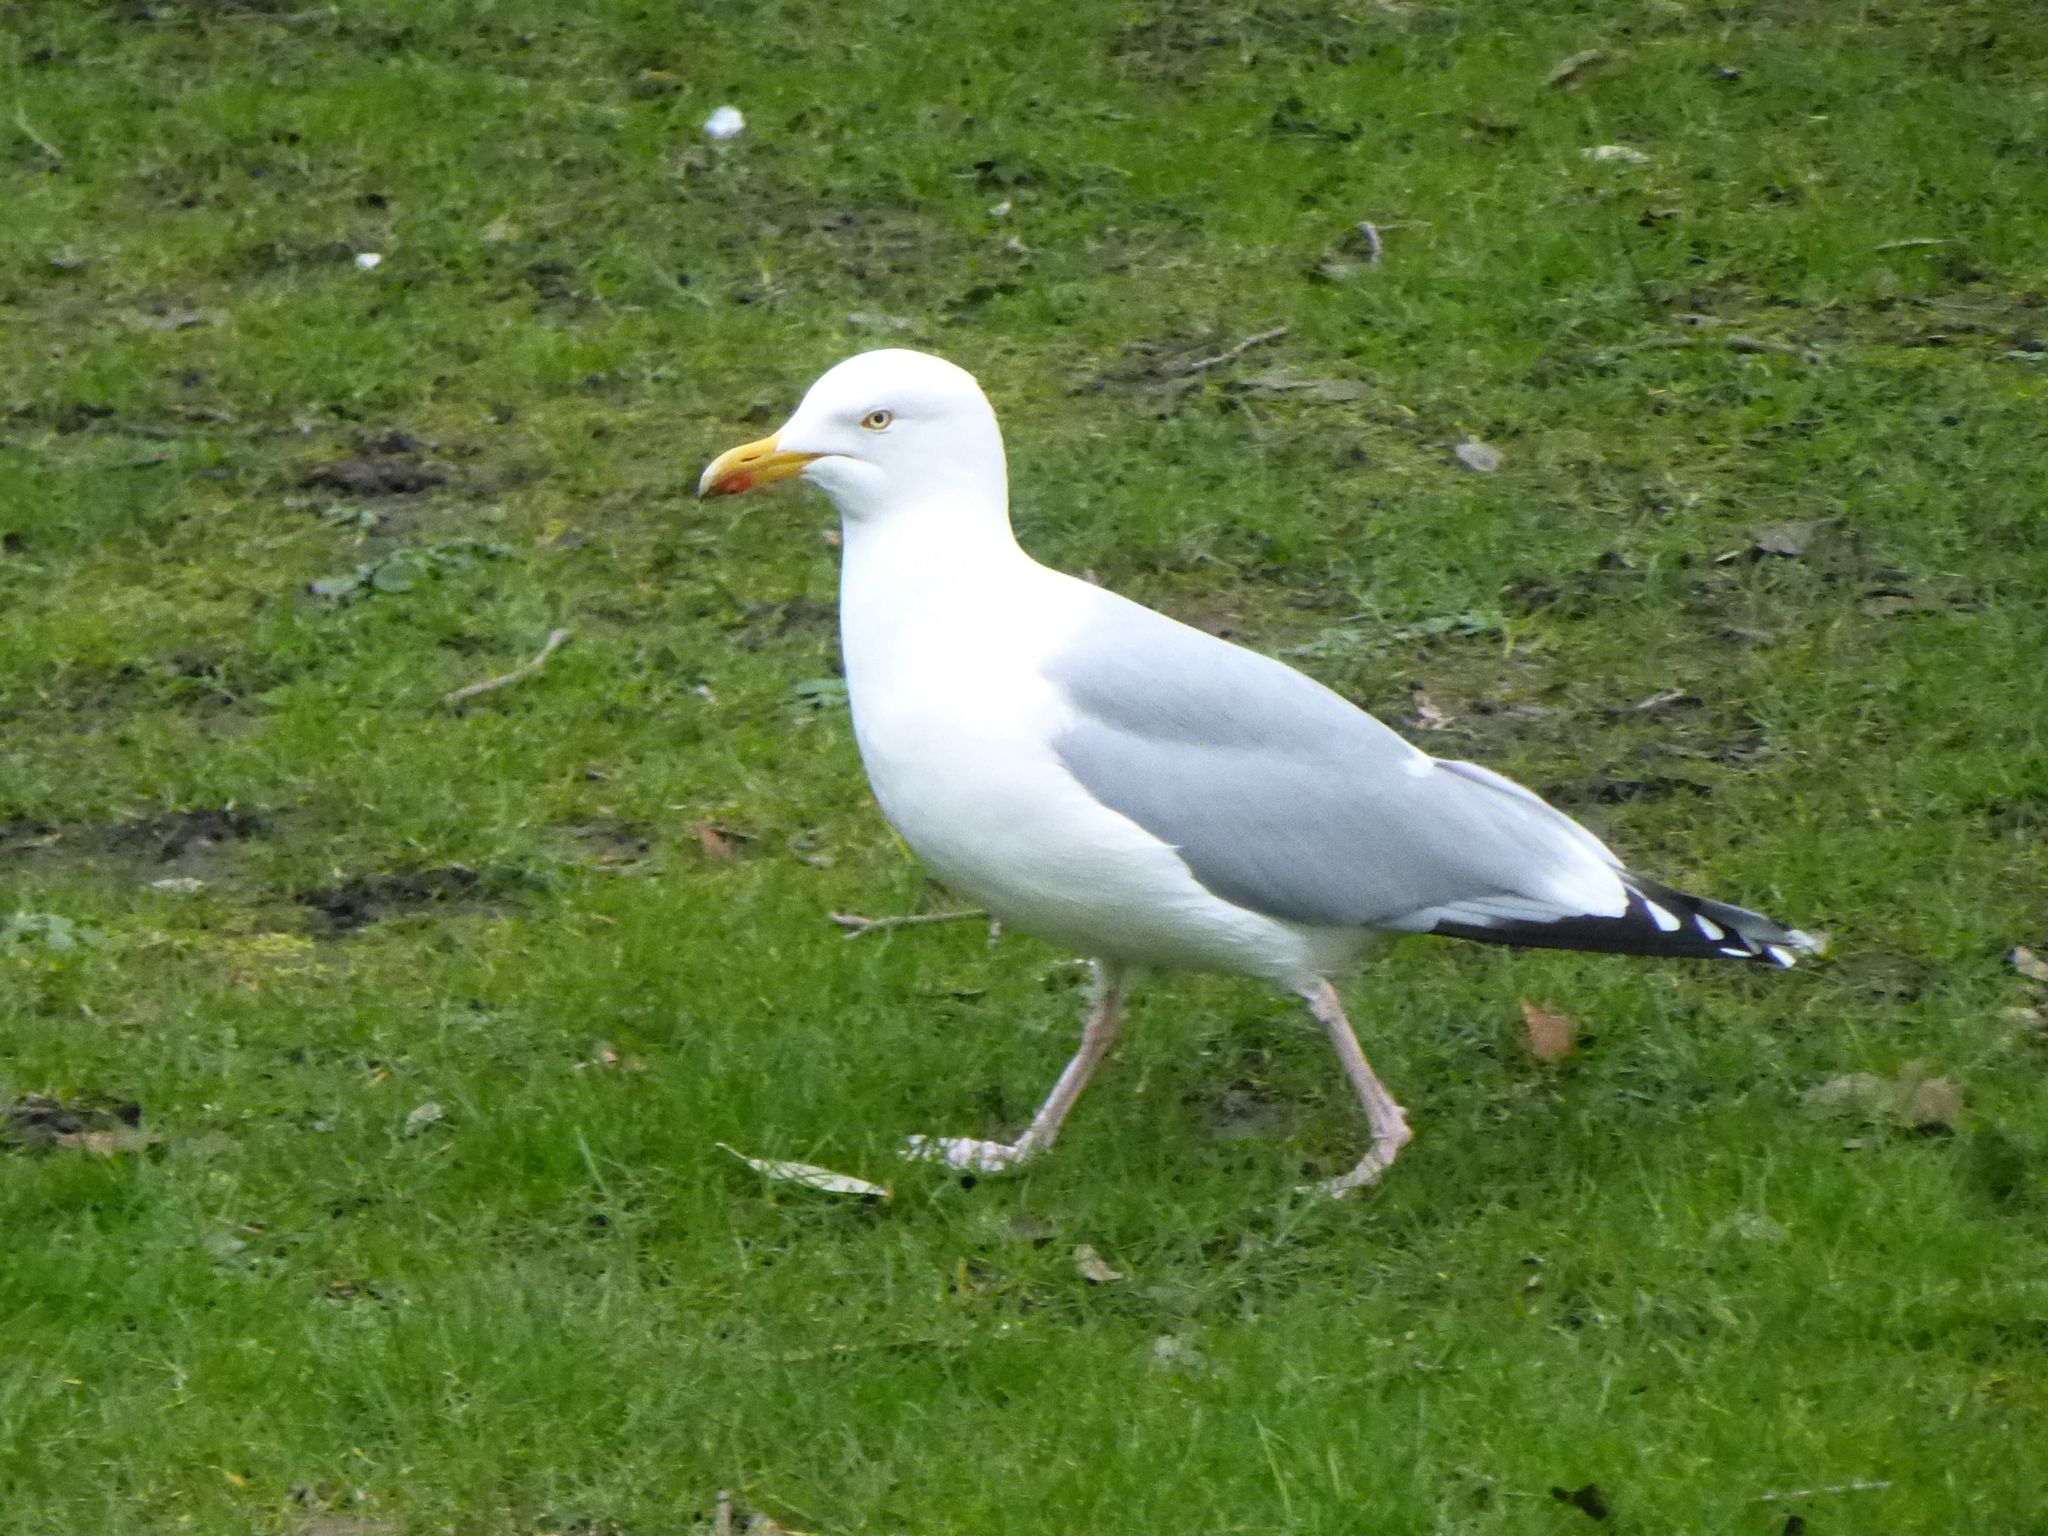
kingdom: Animalia
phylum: Chordata
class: Aves
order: Charadriiformes
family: Laridae
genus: Larus
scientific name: Larus argentatus
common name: Herring gull
